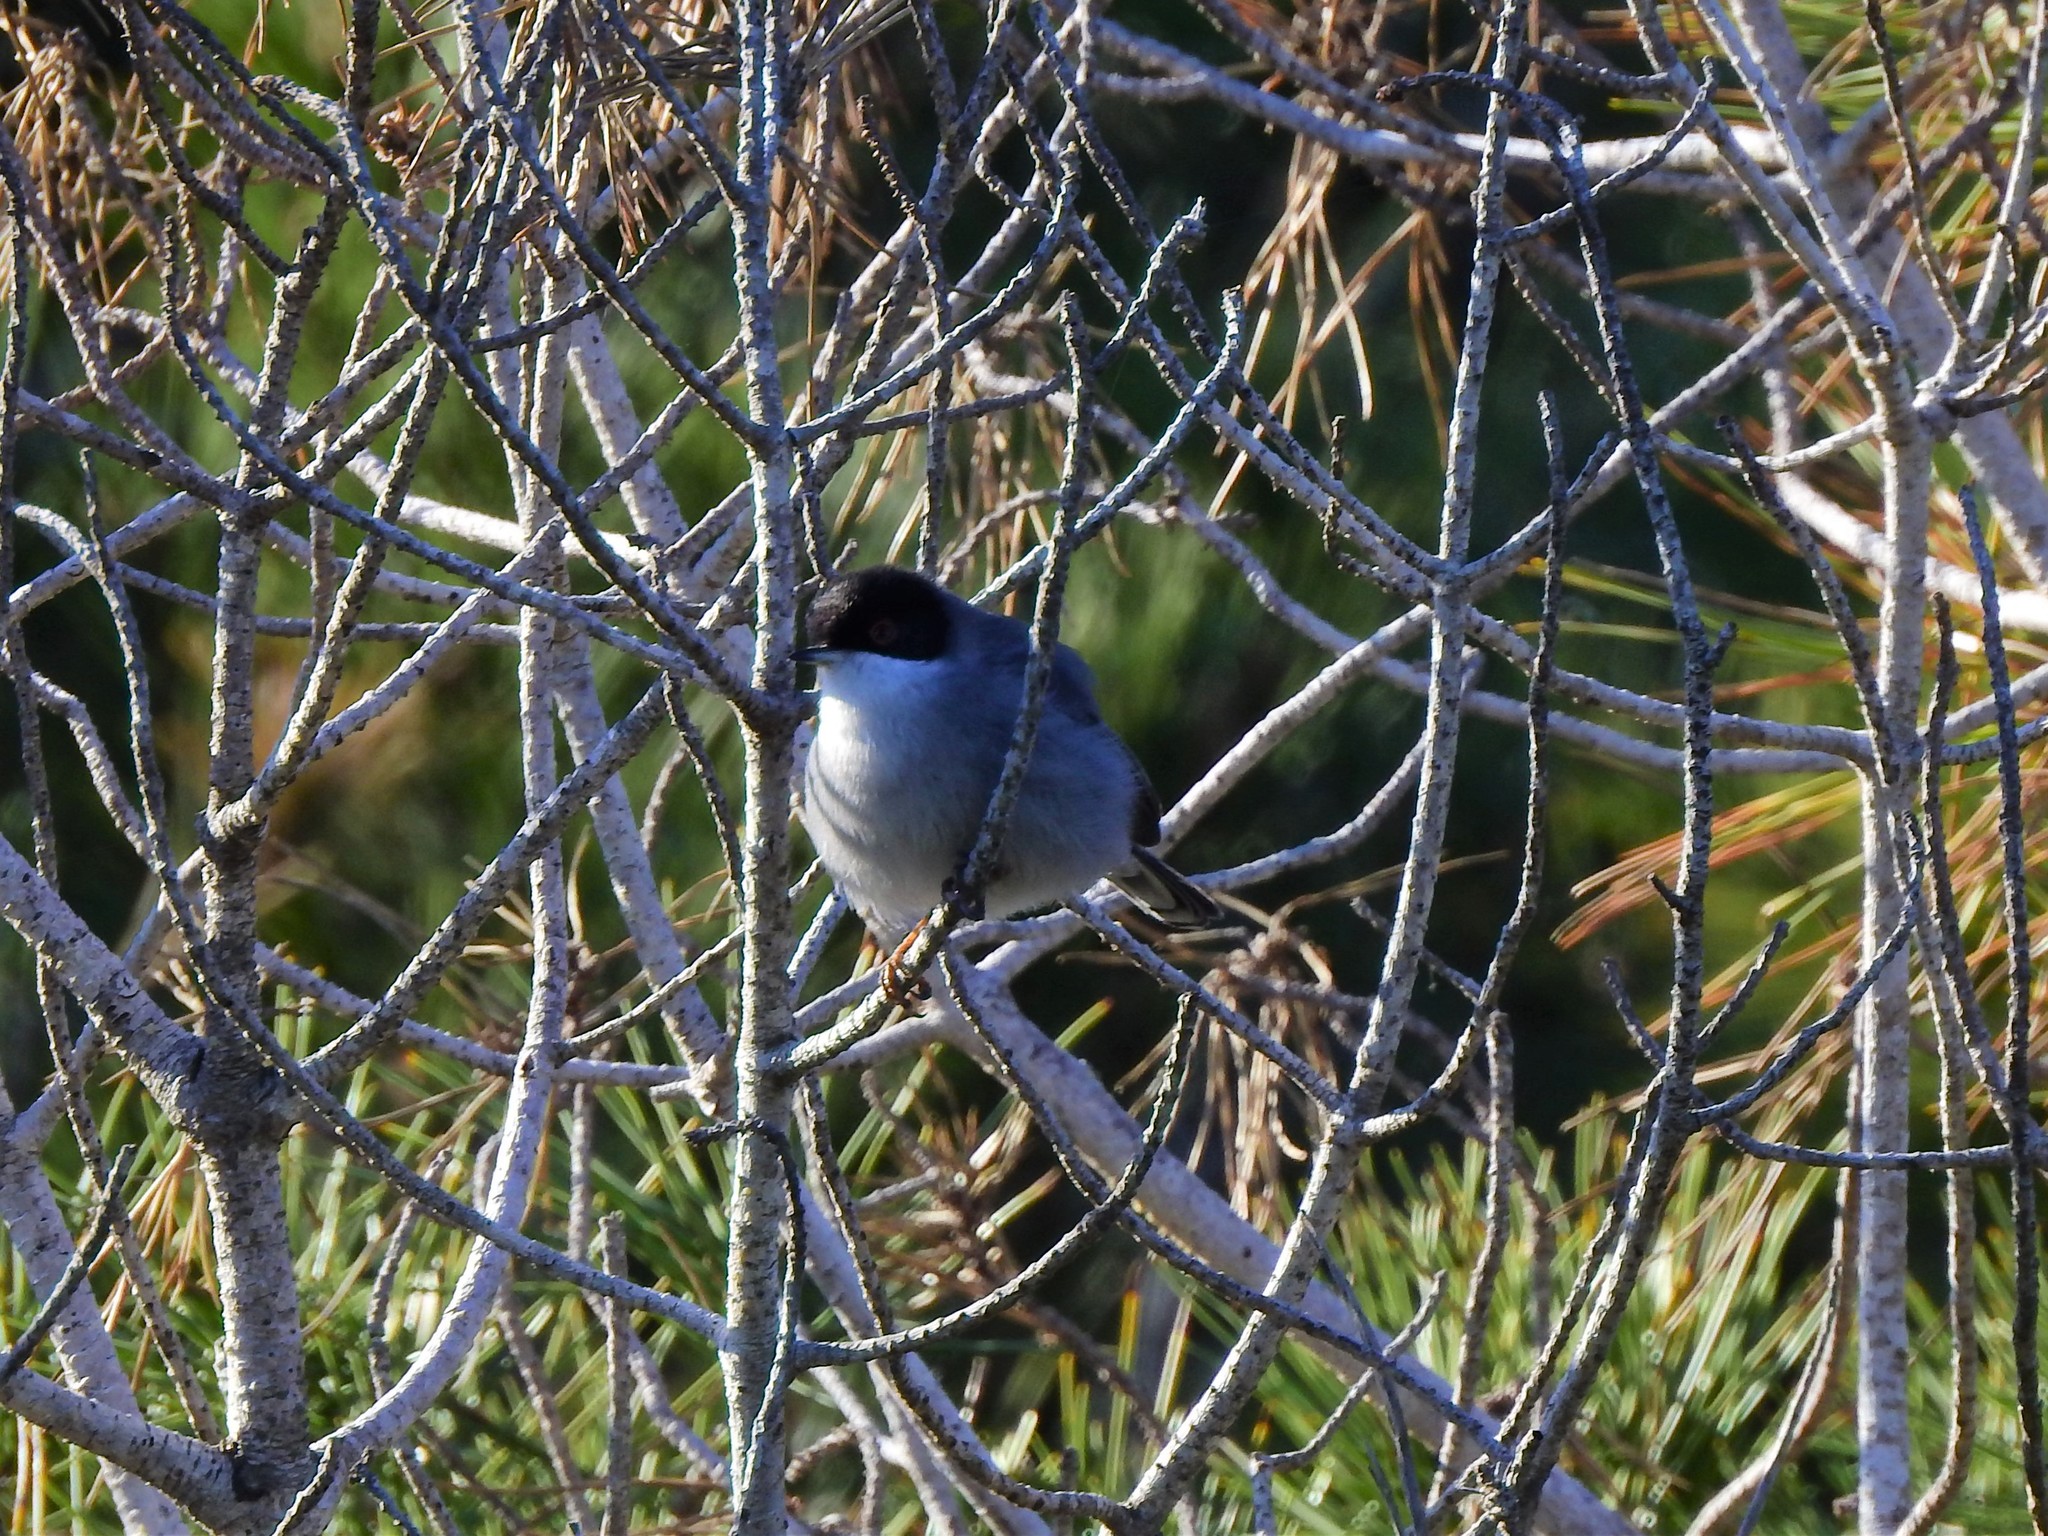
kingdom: Animalia
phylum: Chordata
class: Aves
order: Passeriformes
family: Sylviidae
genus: Curruca
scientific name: Curruca melanocephala
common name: Sardinian warbler
